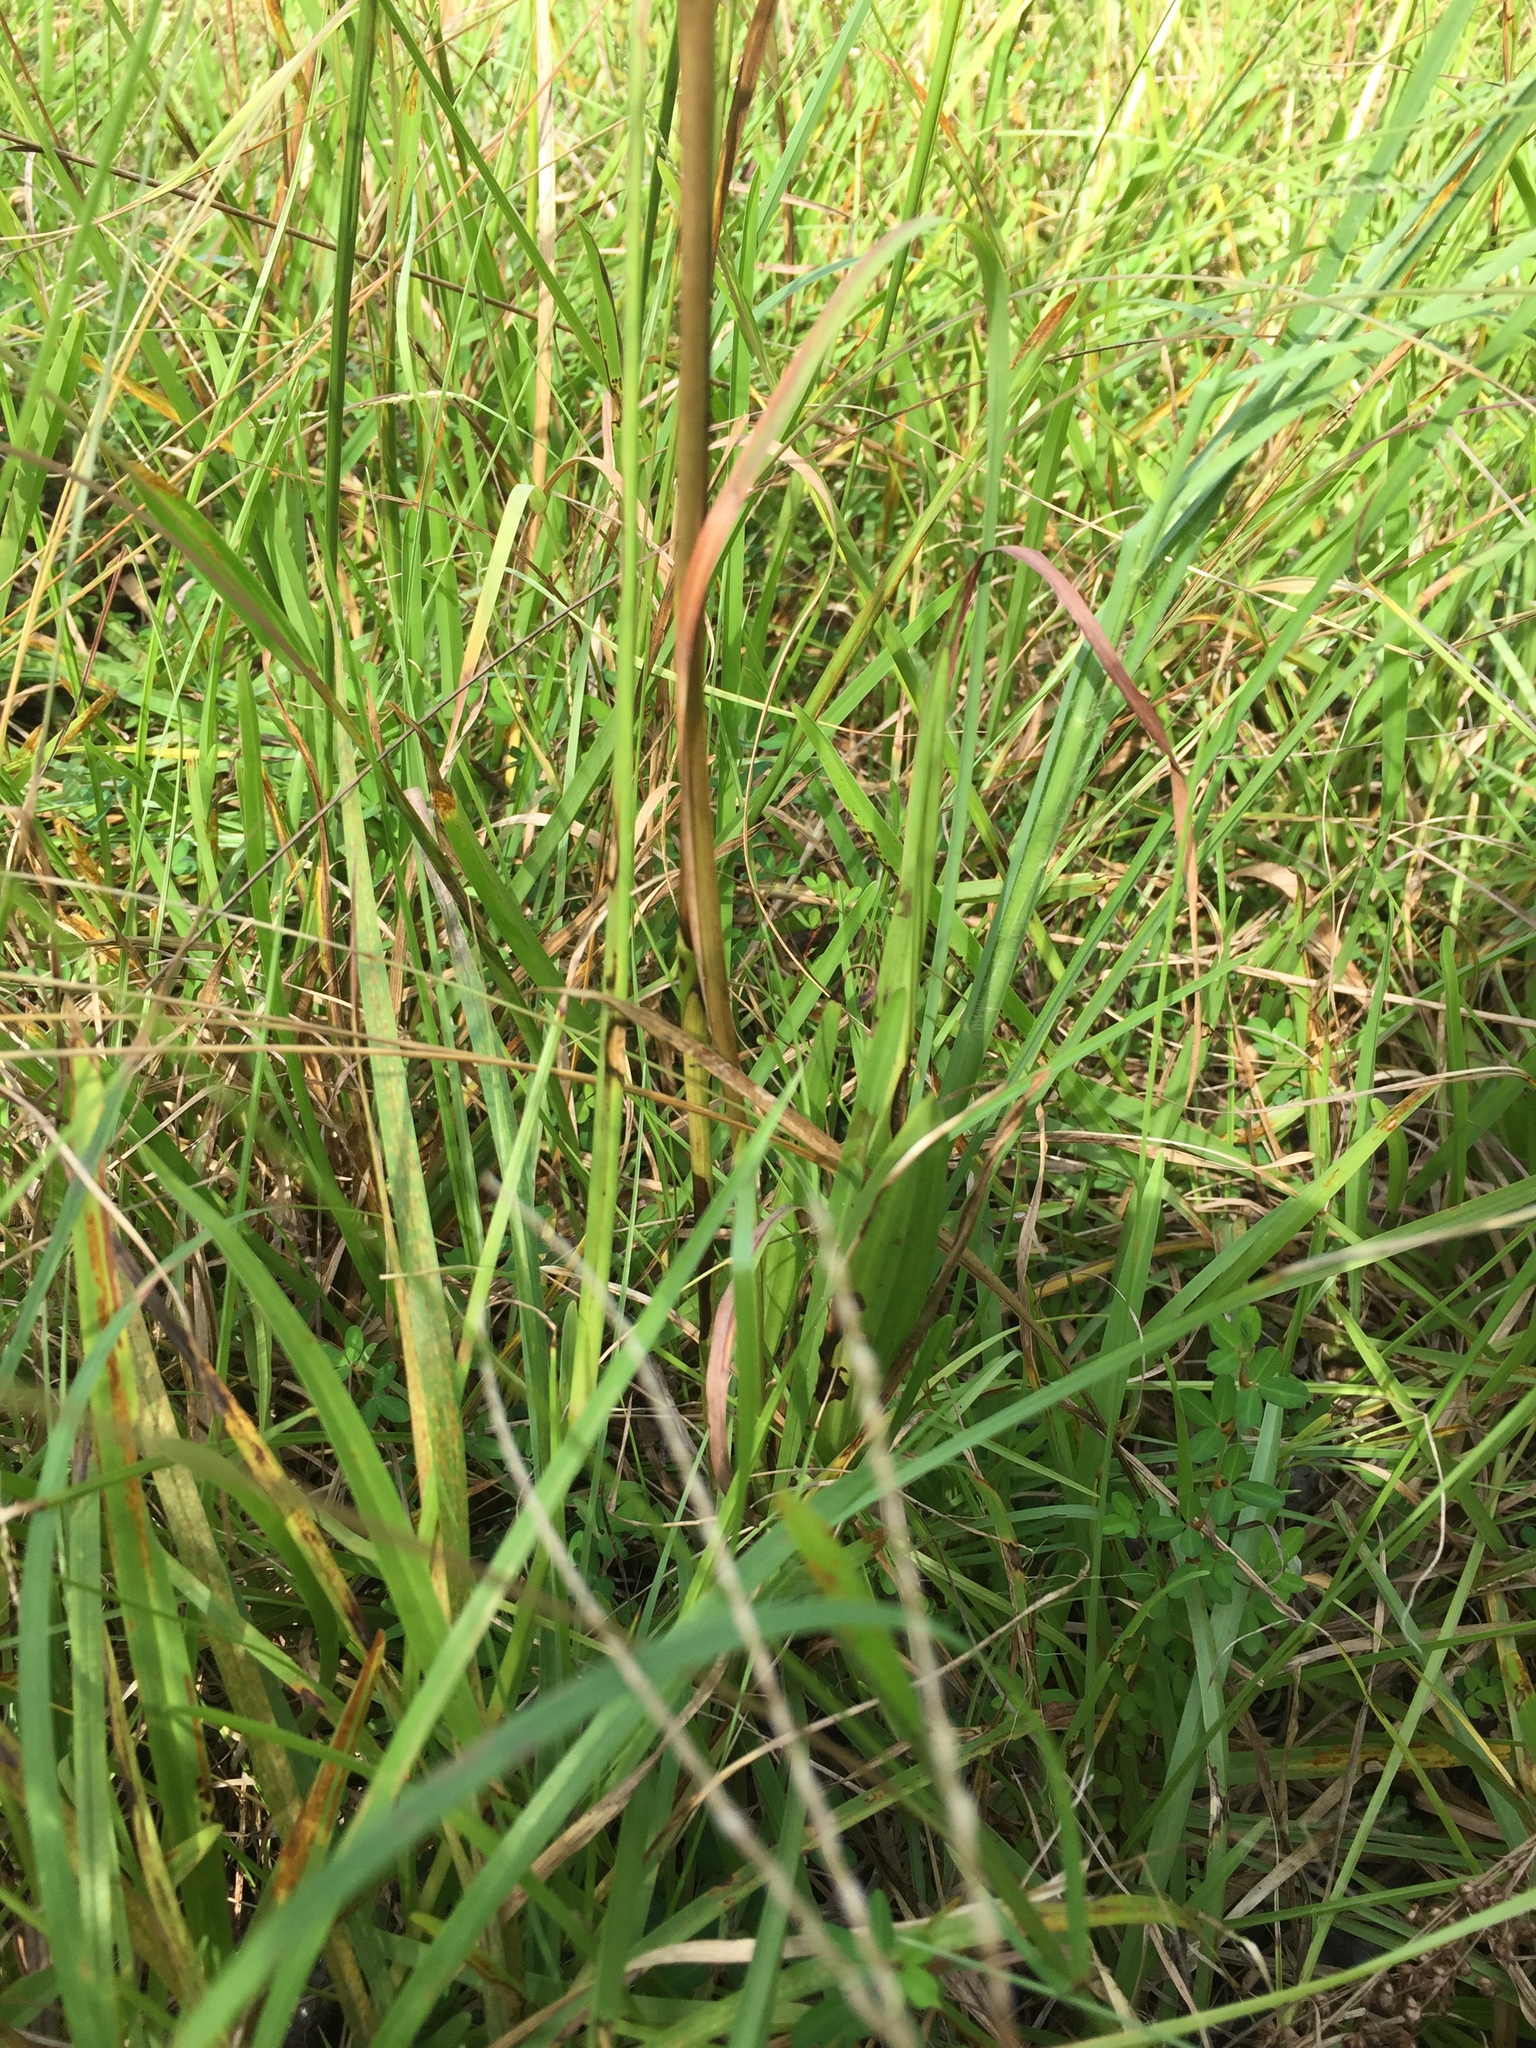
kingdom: Plantae
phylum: Tracheophyta
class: Liliopsida
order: Asparagales
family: Orchidaceae
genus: Eulophia
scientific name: Eulophia ecristata
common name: Giant orchid
